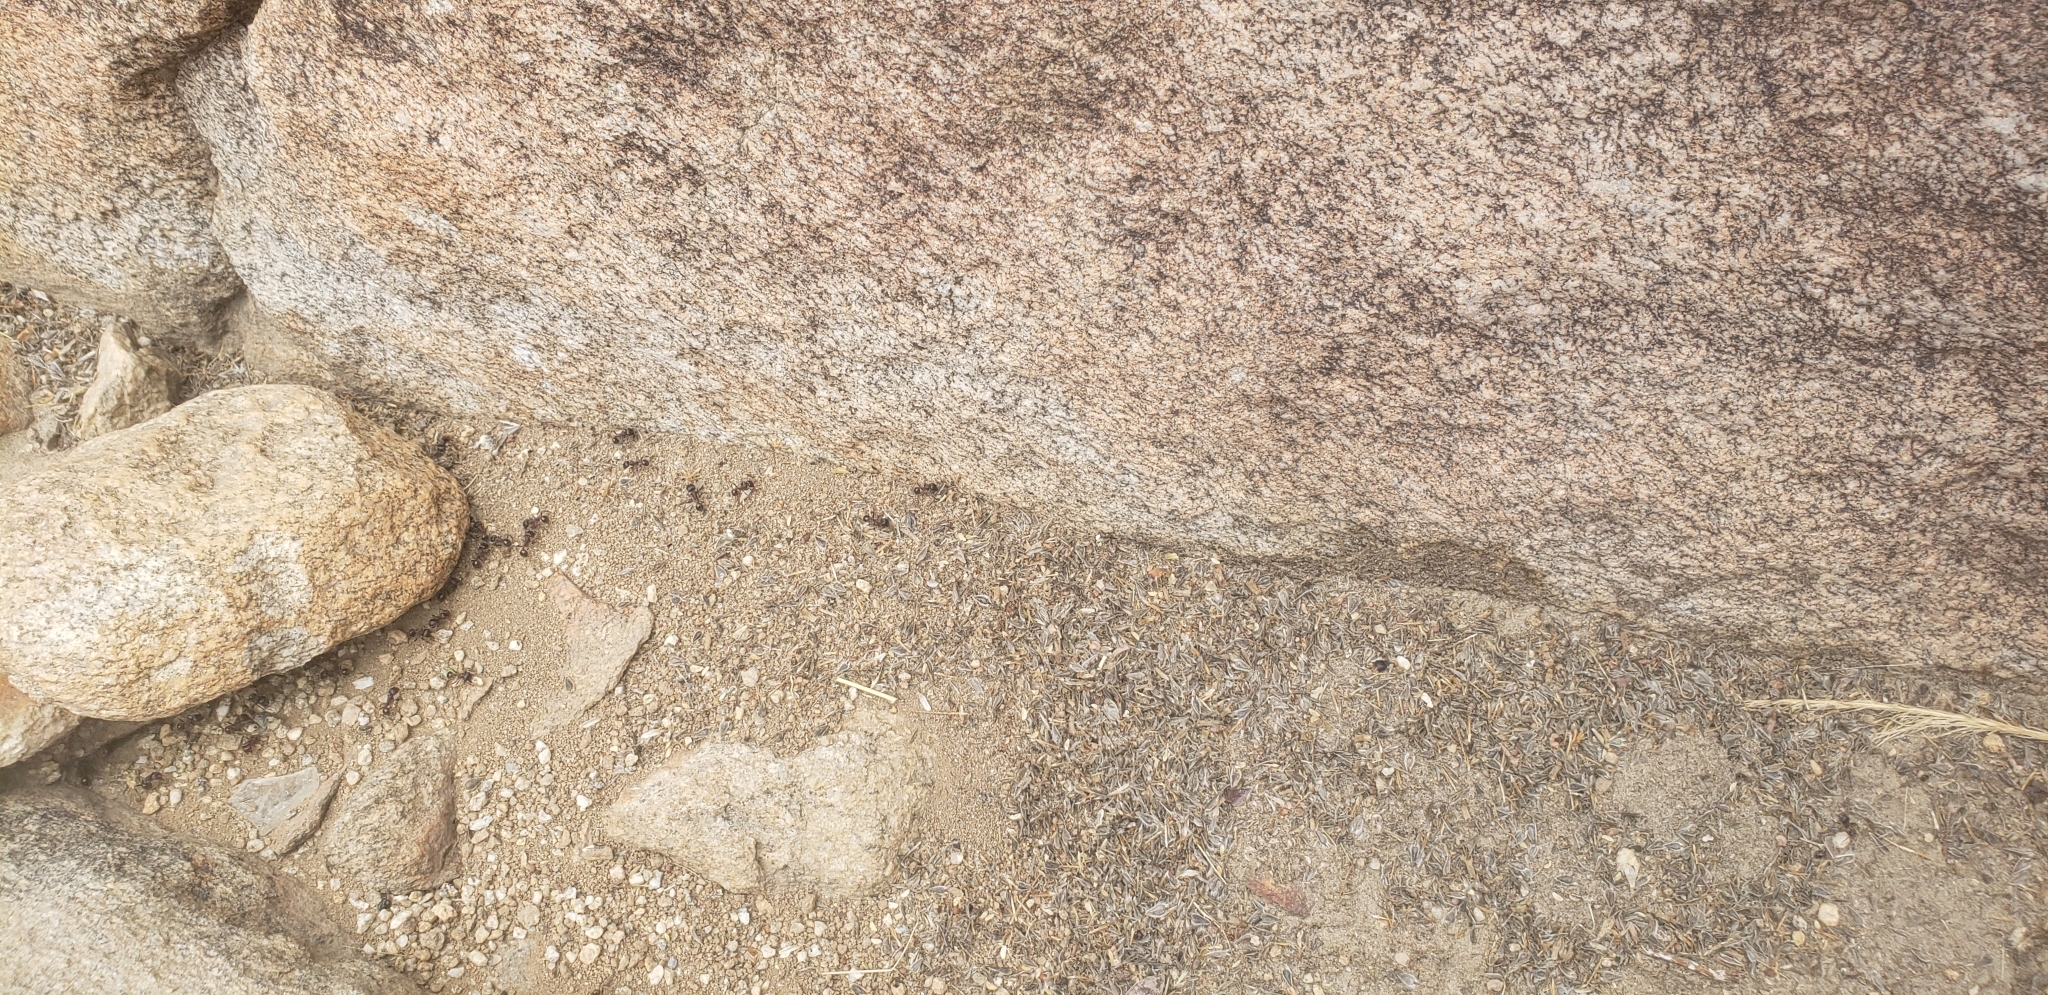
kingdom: Animalia
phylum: Arthropoda
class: Insecta
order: Hymenoptera
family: Formicidae
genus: Pogonomyrmex
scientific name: Pogonomyrmex rugosus
